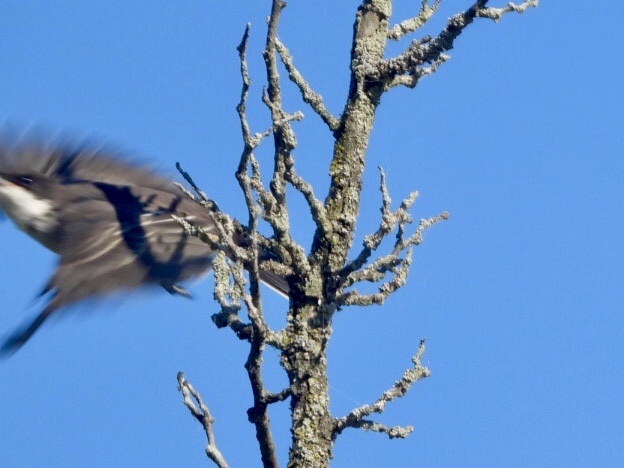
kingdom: Animalia
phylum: Chordata
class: Aves
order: Passeriformes
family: Tyrannidae
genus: Tyrannus
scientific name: Tyrannus tyrannus
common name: Eastern kingbird
